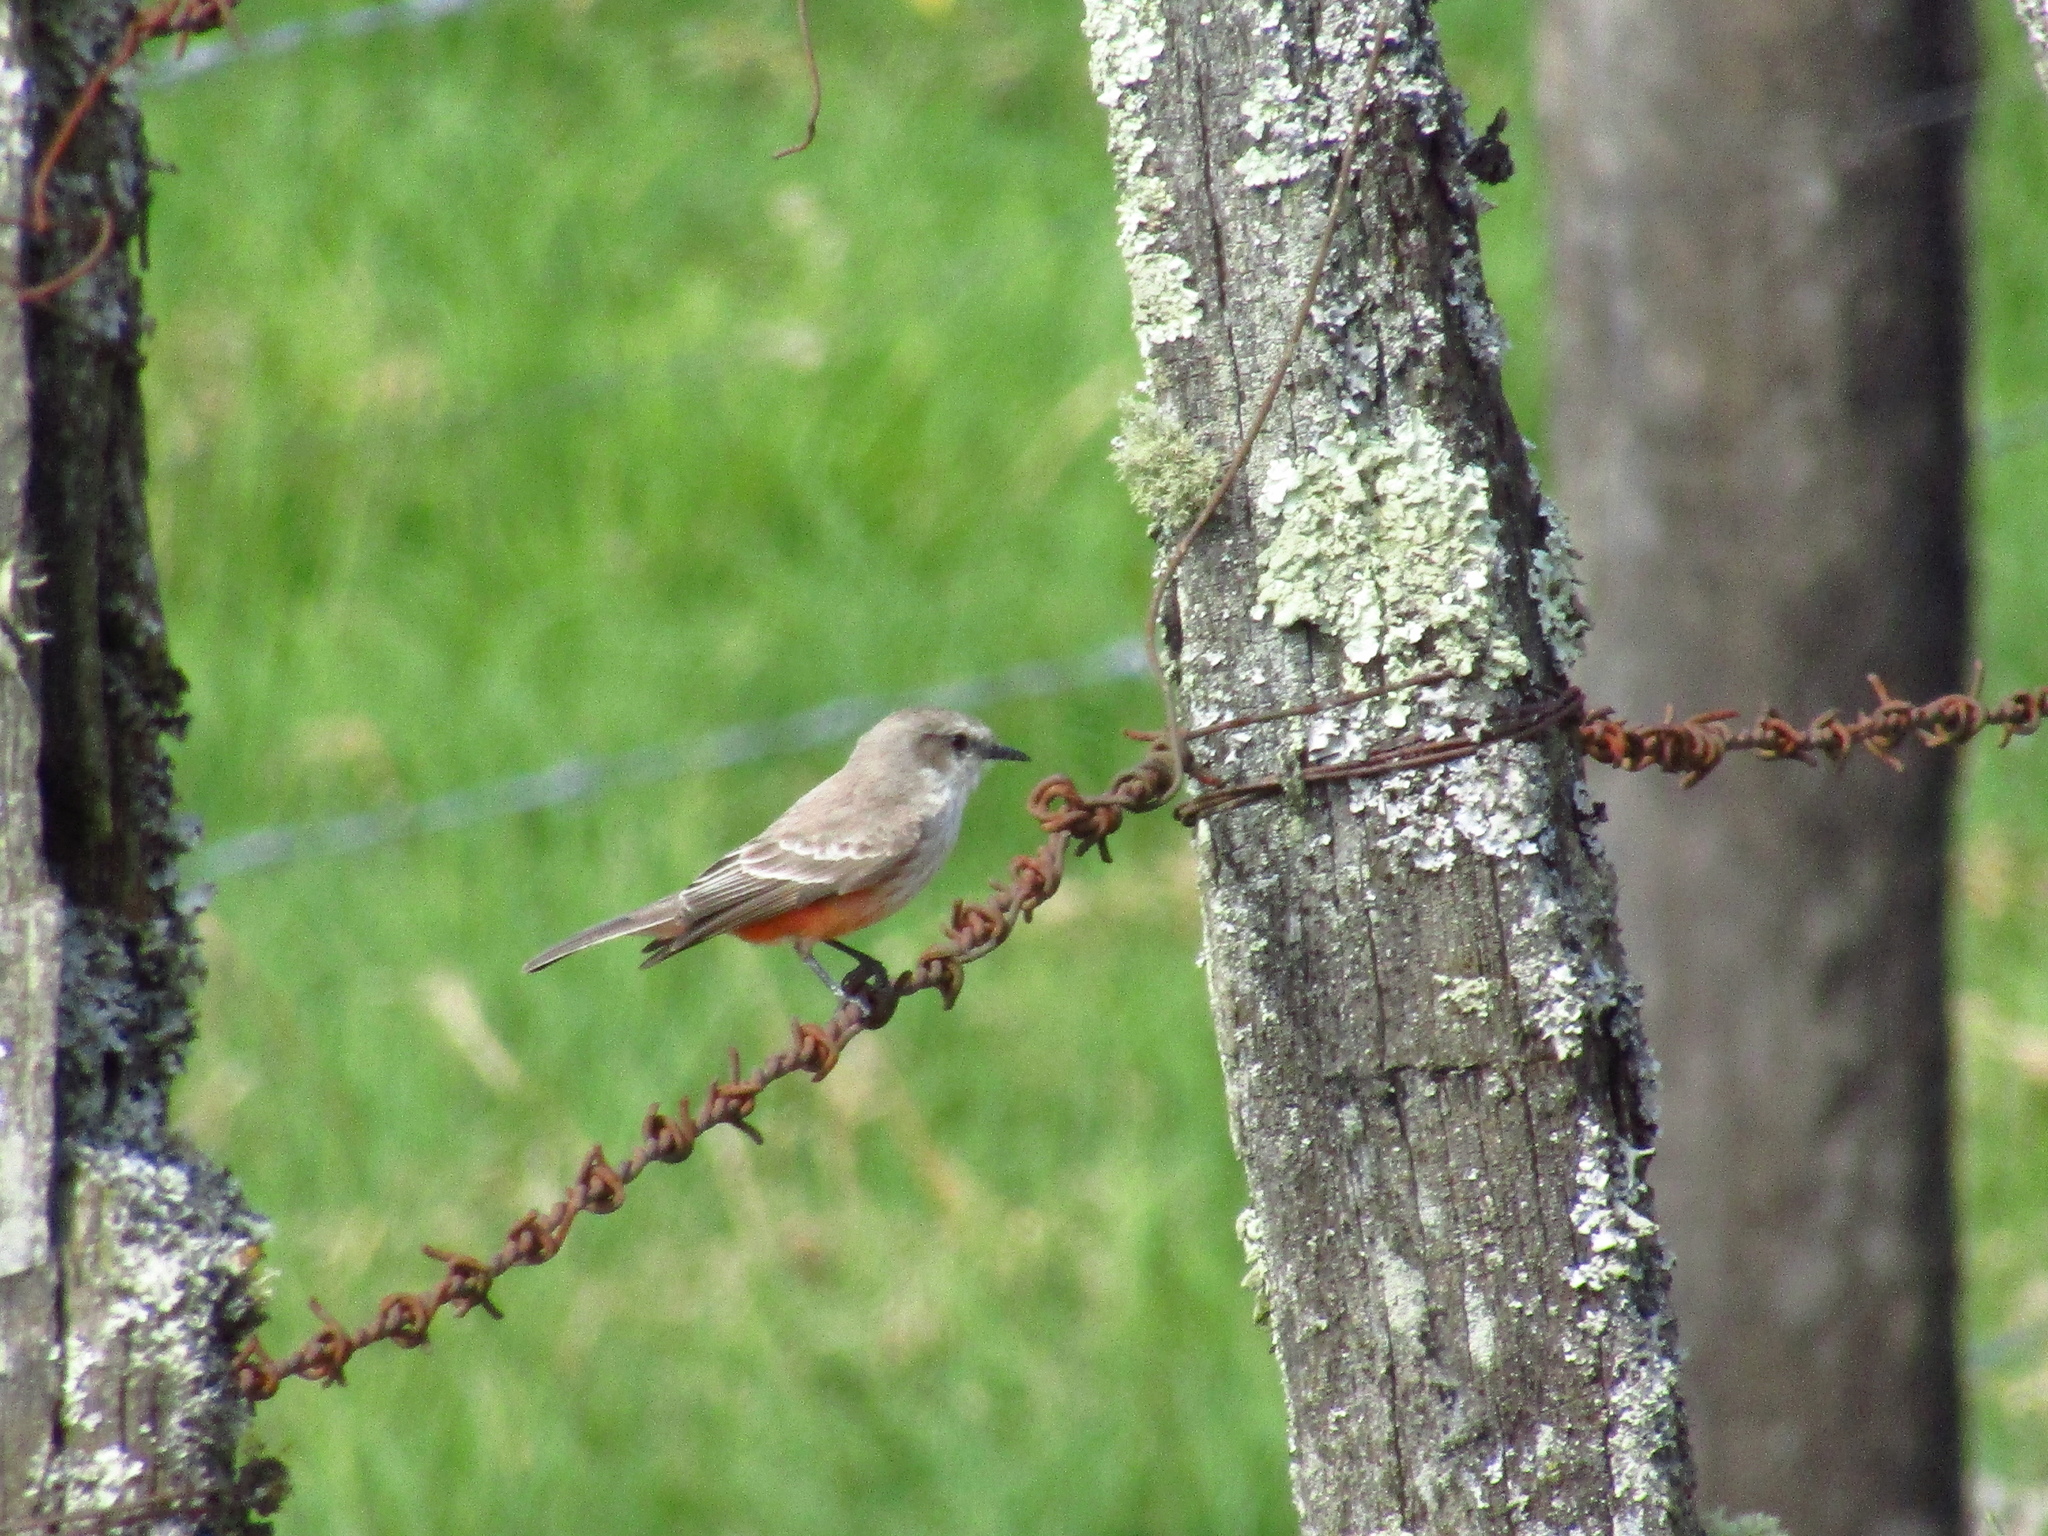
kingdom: Animalia
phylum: Chordata
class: Aves
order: Passeriformes
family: Tyrannidae
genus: Pyrocephalus
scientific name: Pyrocephalus rubinus
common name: Vermilion flycatcher
